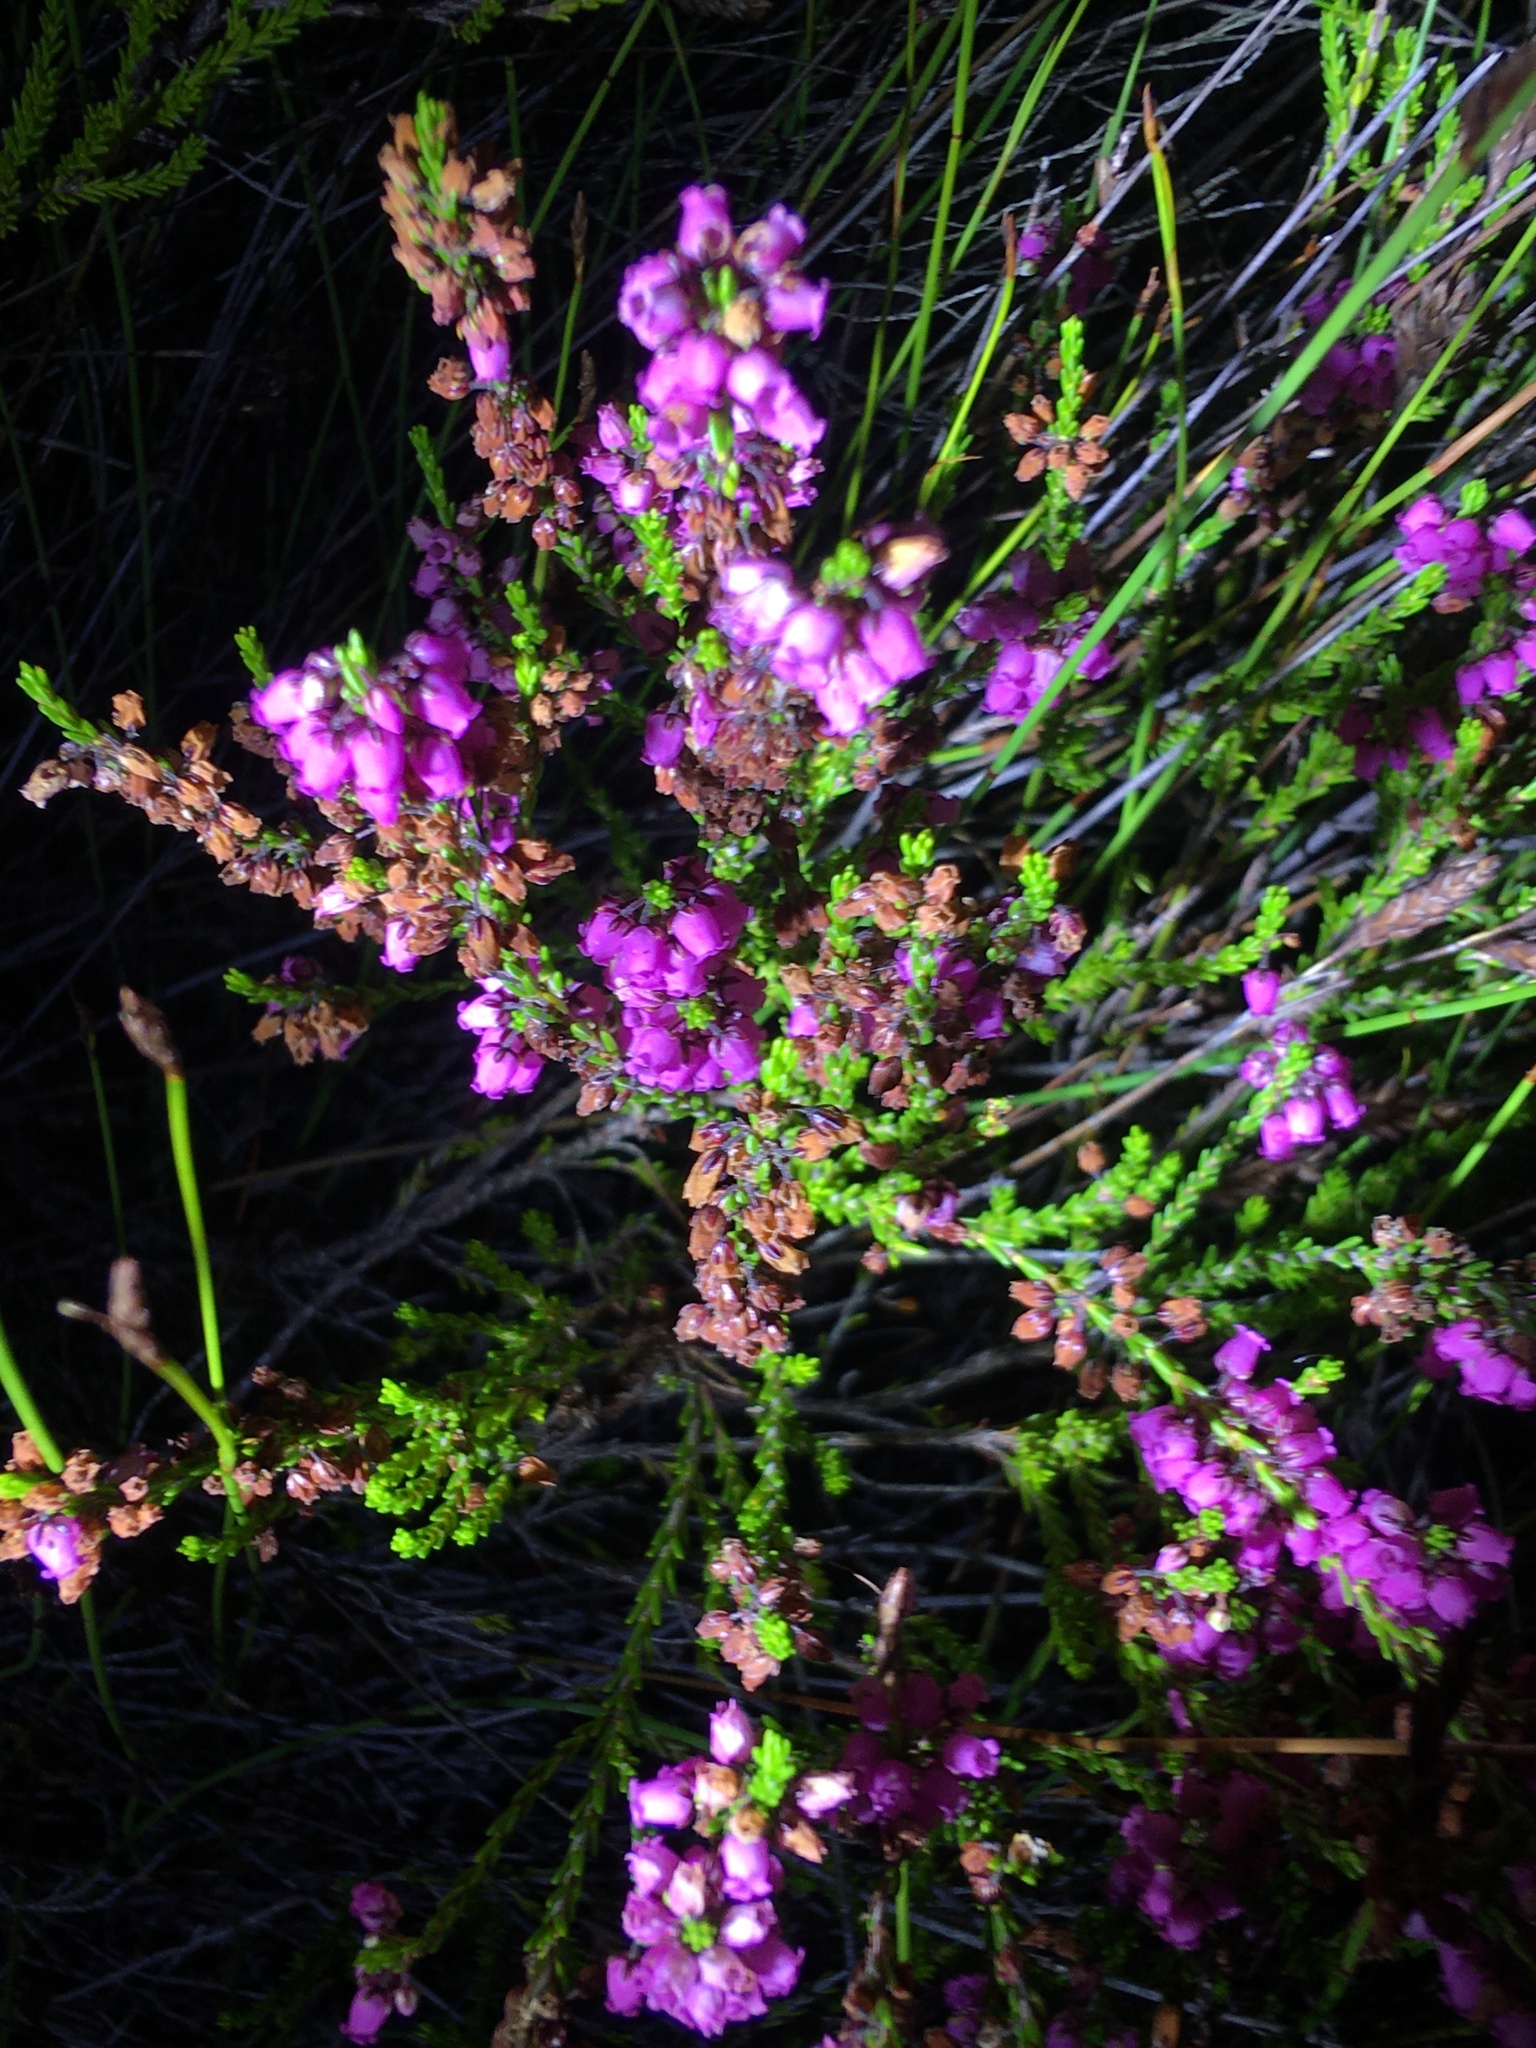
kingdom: Plantae
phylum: Tracheophyta
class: Magnoliopsida
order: Ericales
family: Ericaceae
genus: Erica
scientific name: Erica pulchella
